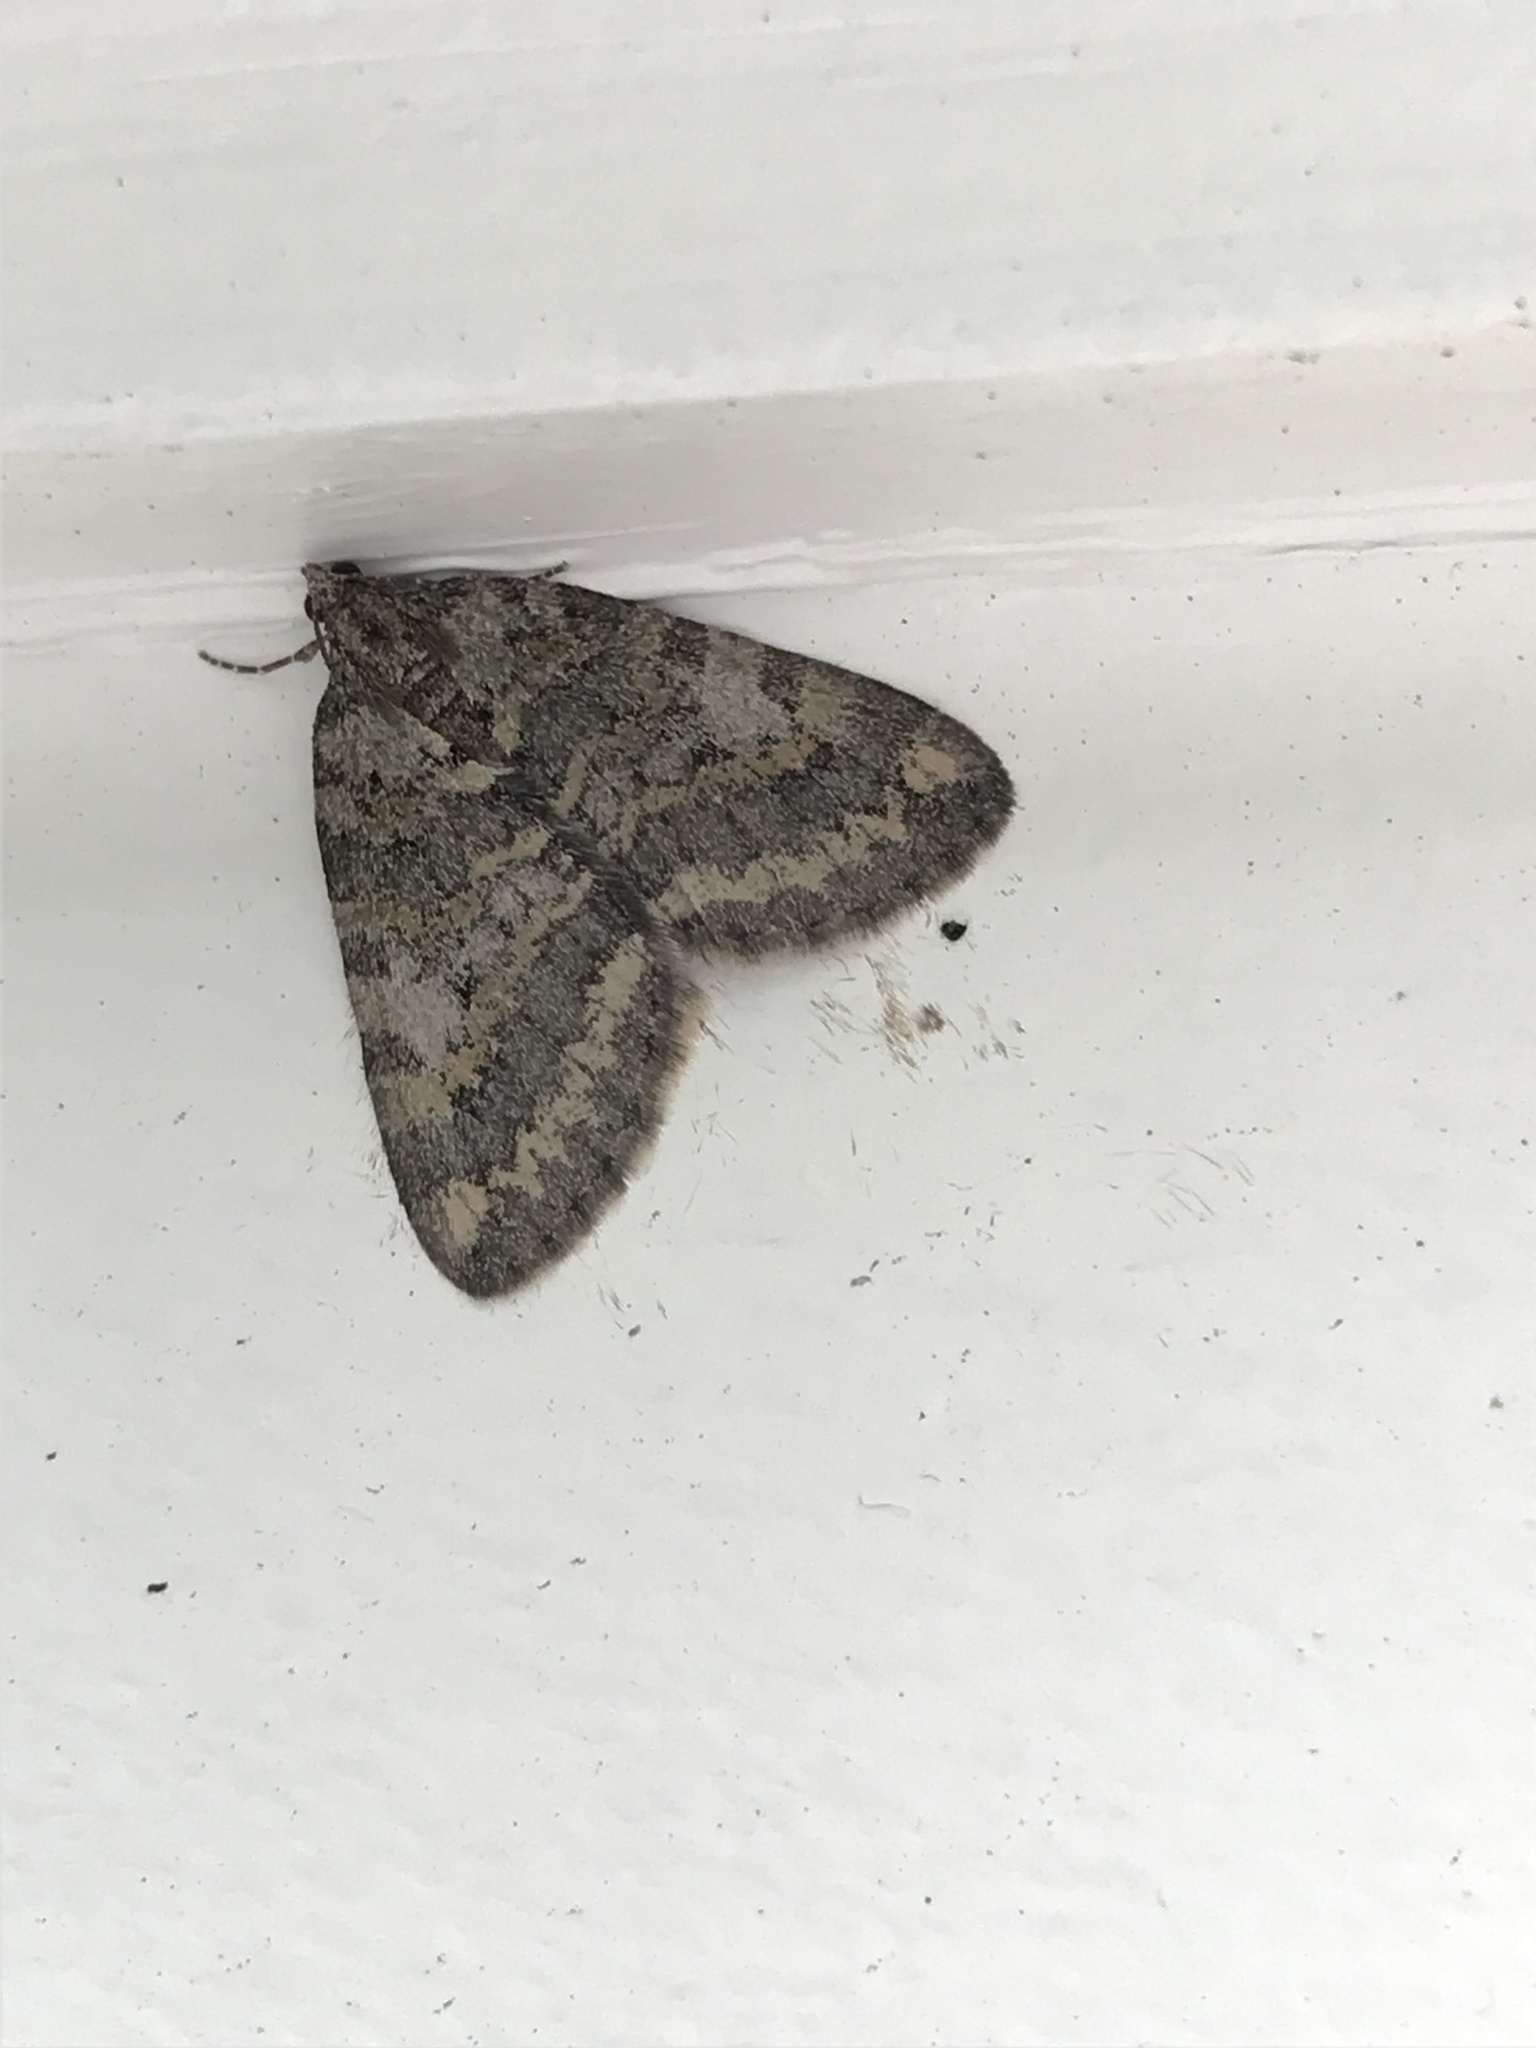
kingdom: Animalia
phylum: Arthropoda
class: Insecta
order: Lepidoptera
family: Geometridae
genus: Hydriomena
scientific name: Hydriomena nubilofasciata
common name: Oak winter highflier moth
